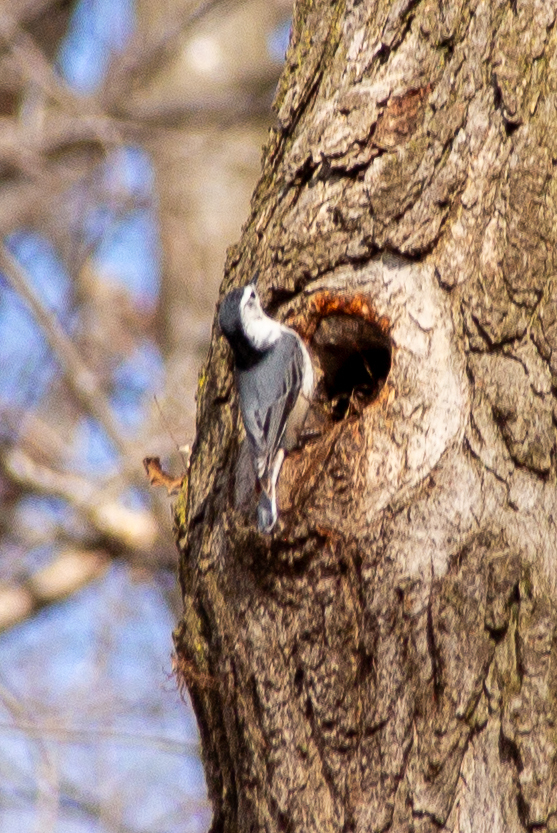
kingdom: Animalia
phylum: Chordata
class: Aves
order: Passeriformes
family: Sittidae
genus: Sitta
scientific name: Sitta carolinensis
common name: White-breasted nuthatch
